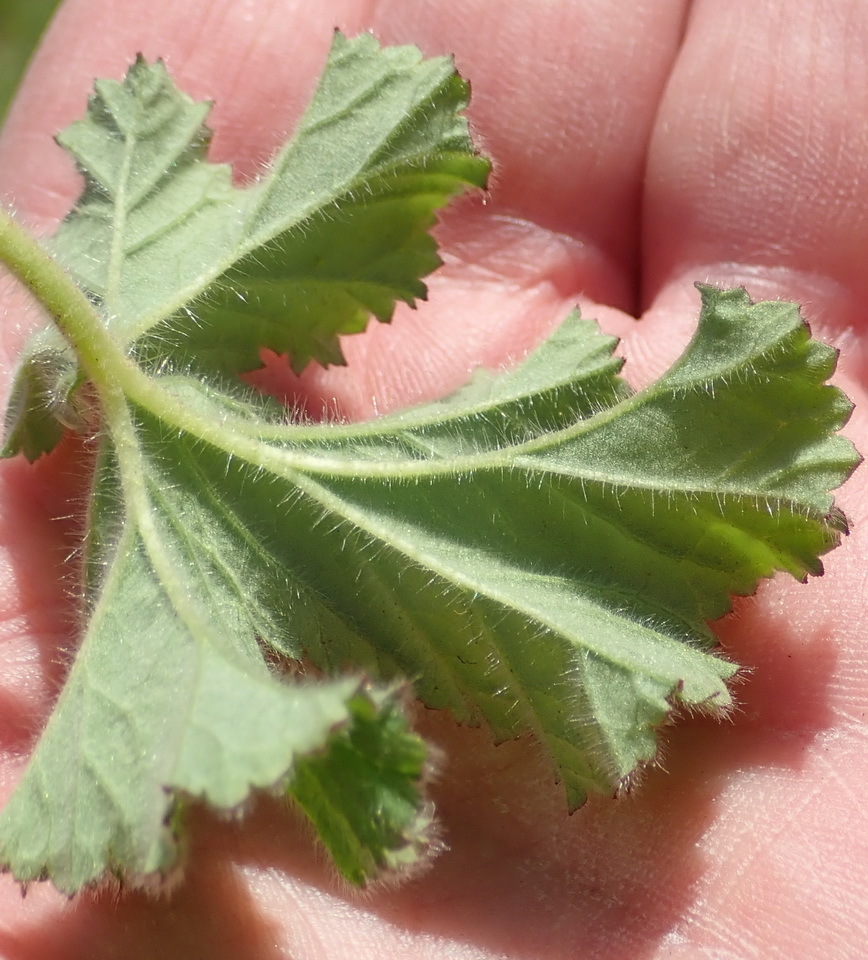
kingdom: Plantae
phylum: Tracheophyta
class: Magnoliopsida
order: Geraniales
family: Geraniaceae
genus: Pelargonium
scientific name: Pelargonium capitatum
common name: Rose scented geranium
